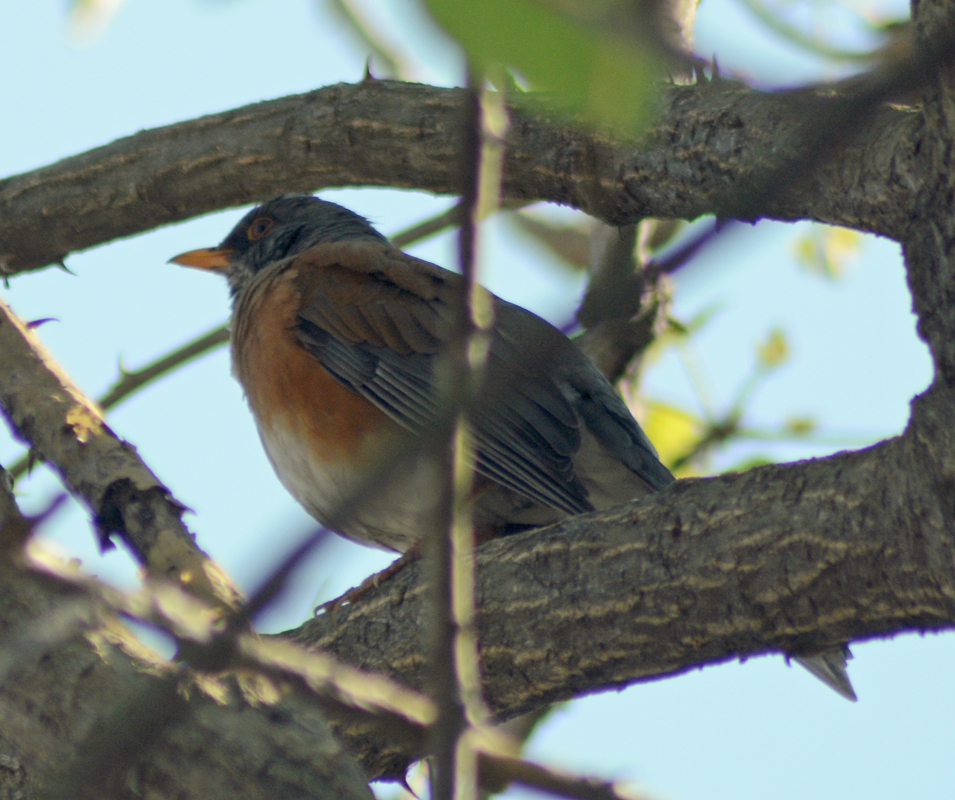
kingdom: Animalia
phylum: Chordata
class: Aves
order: Passeriformes
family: Turdidae
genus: Turdus
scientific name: Turdus rufopalliatus
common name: Rufous-backed robin
